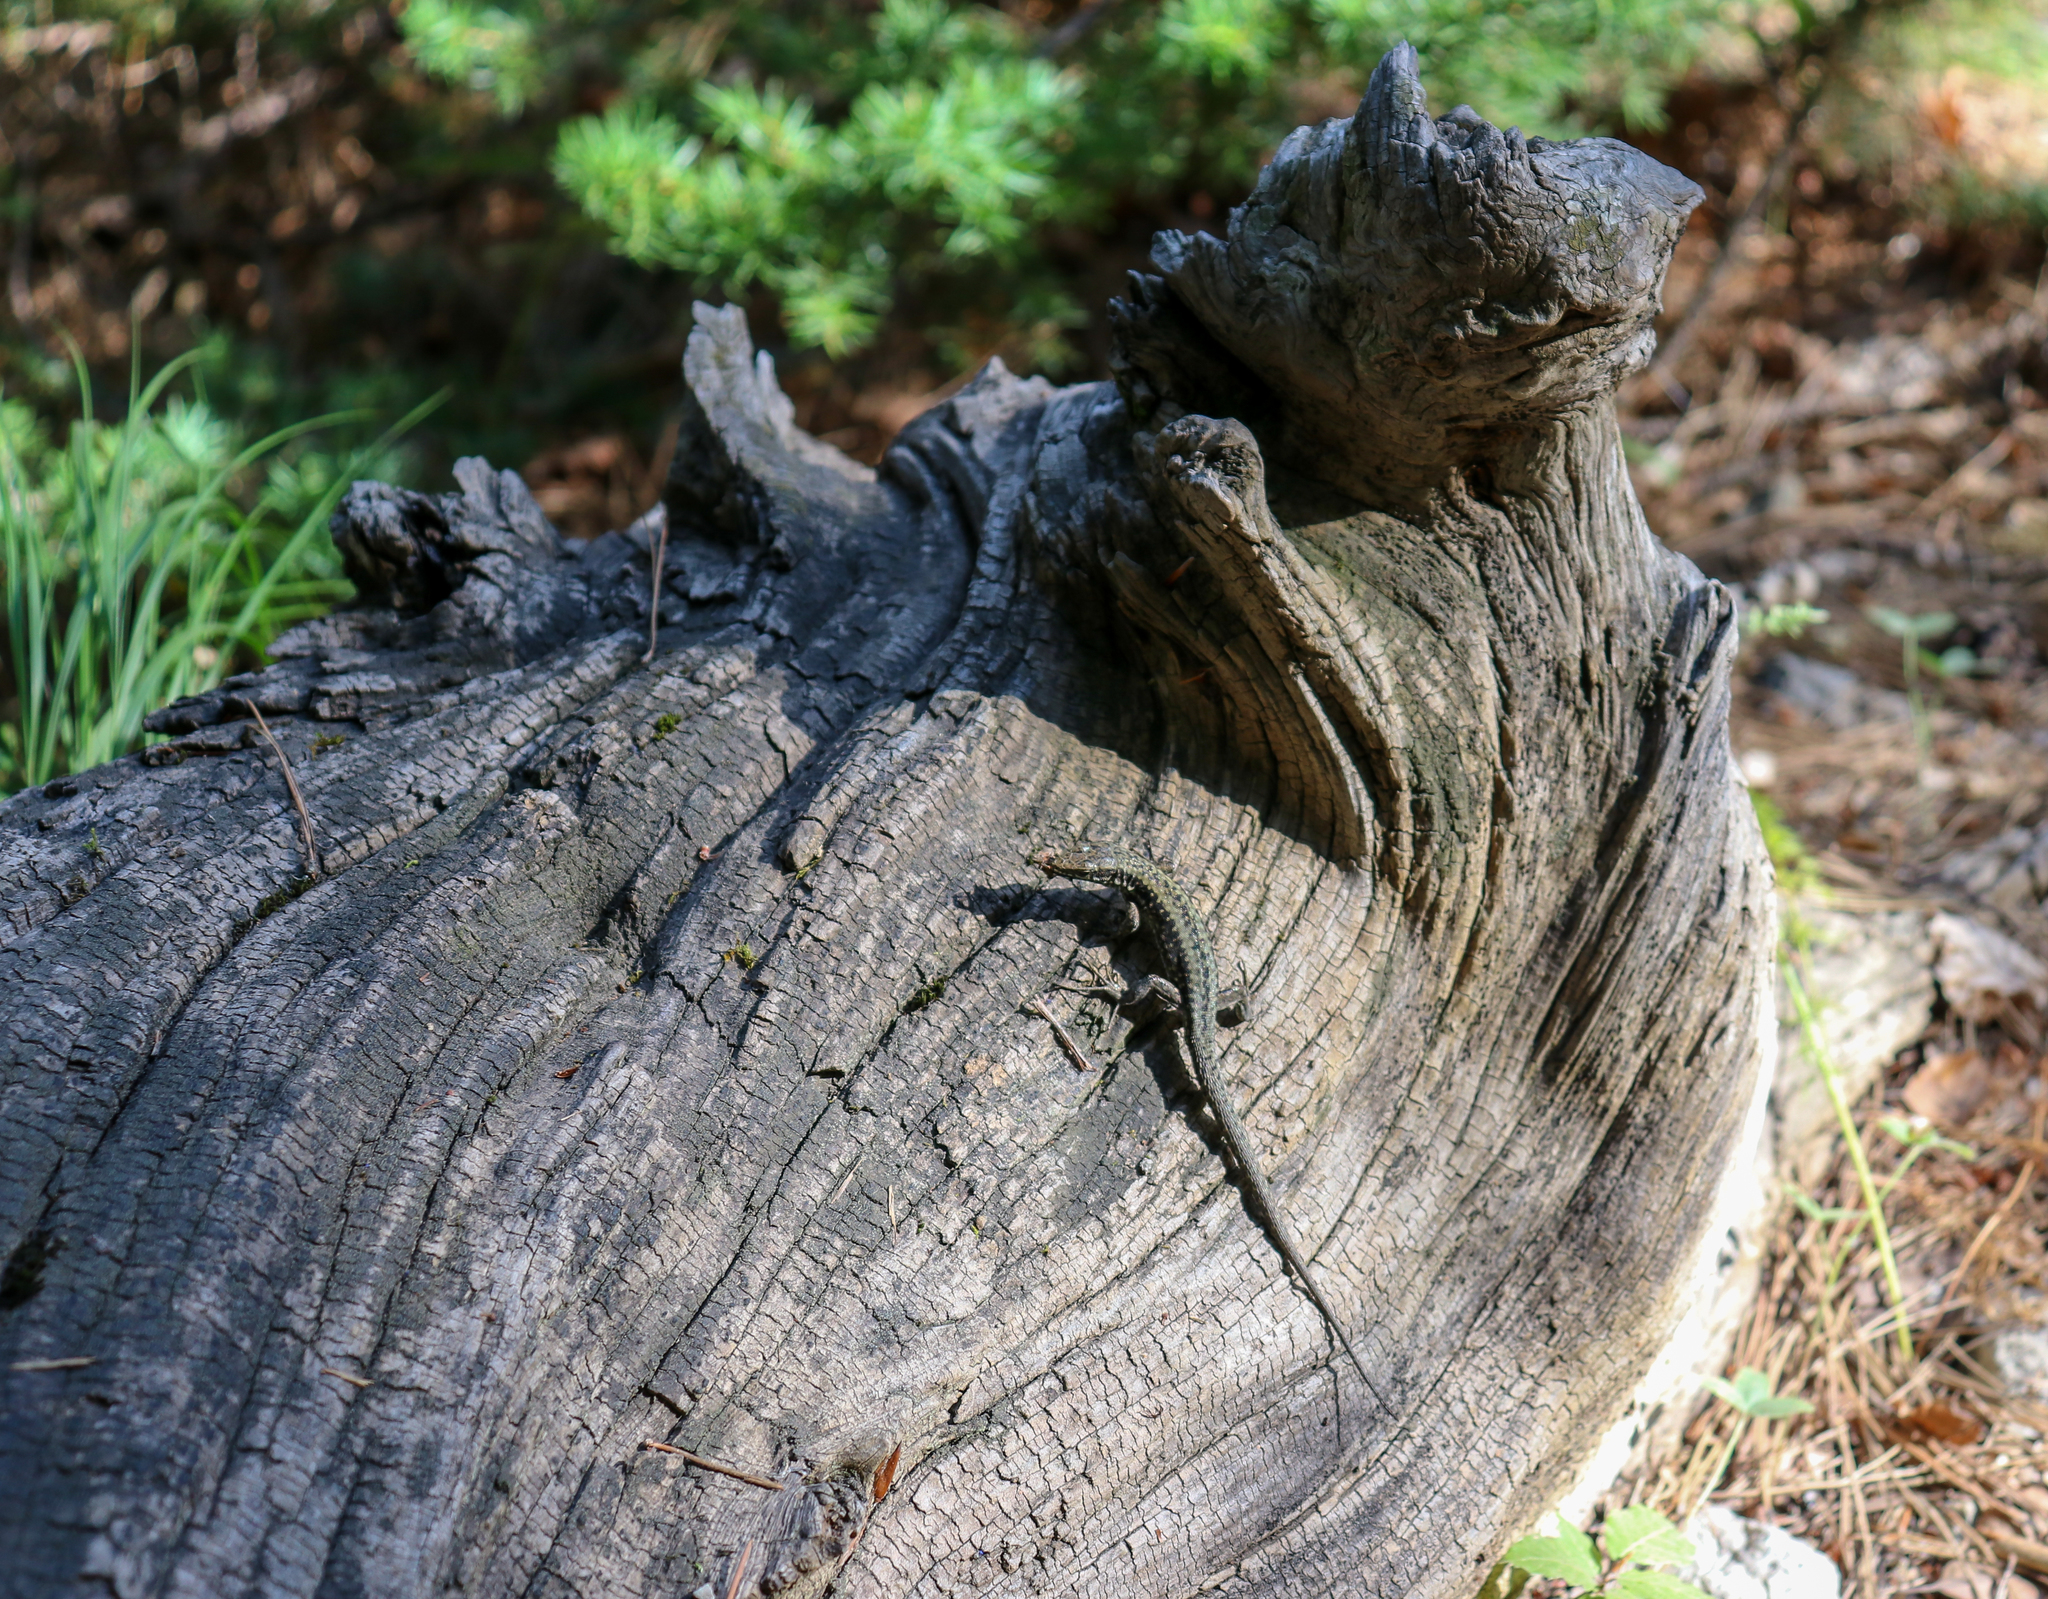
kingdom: Animalia
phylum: Chordata
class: Squamata
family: Lacertidae
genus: Podarcis
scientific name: Podarcis muralis
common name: Common wall lizard
